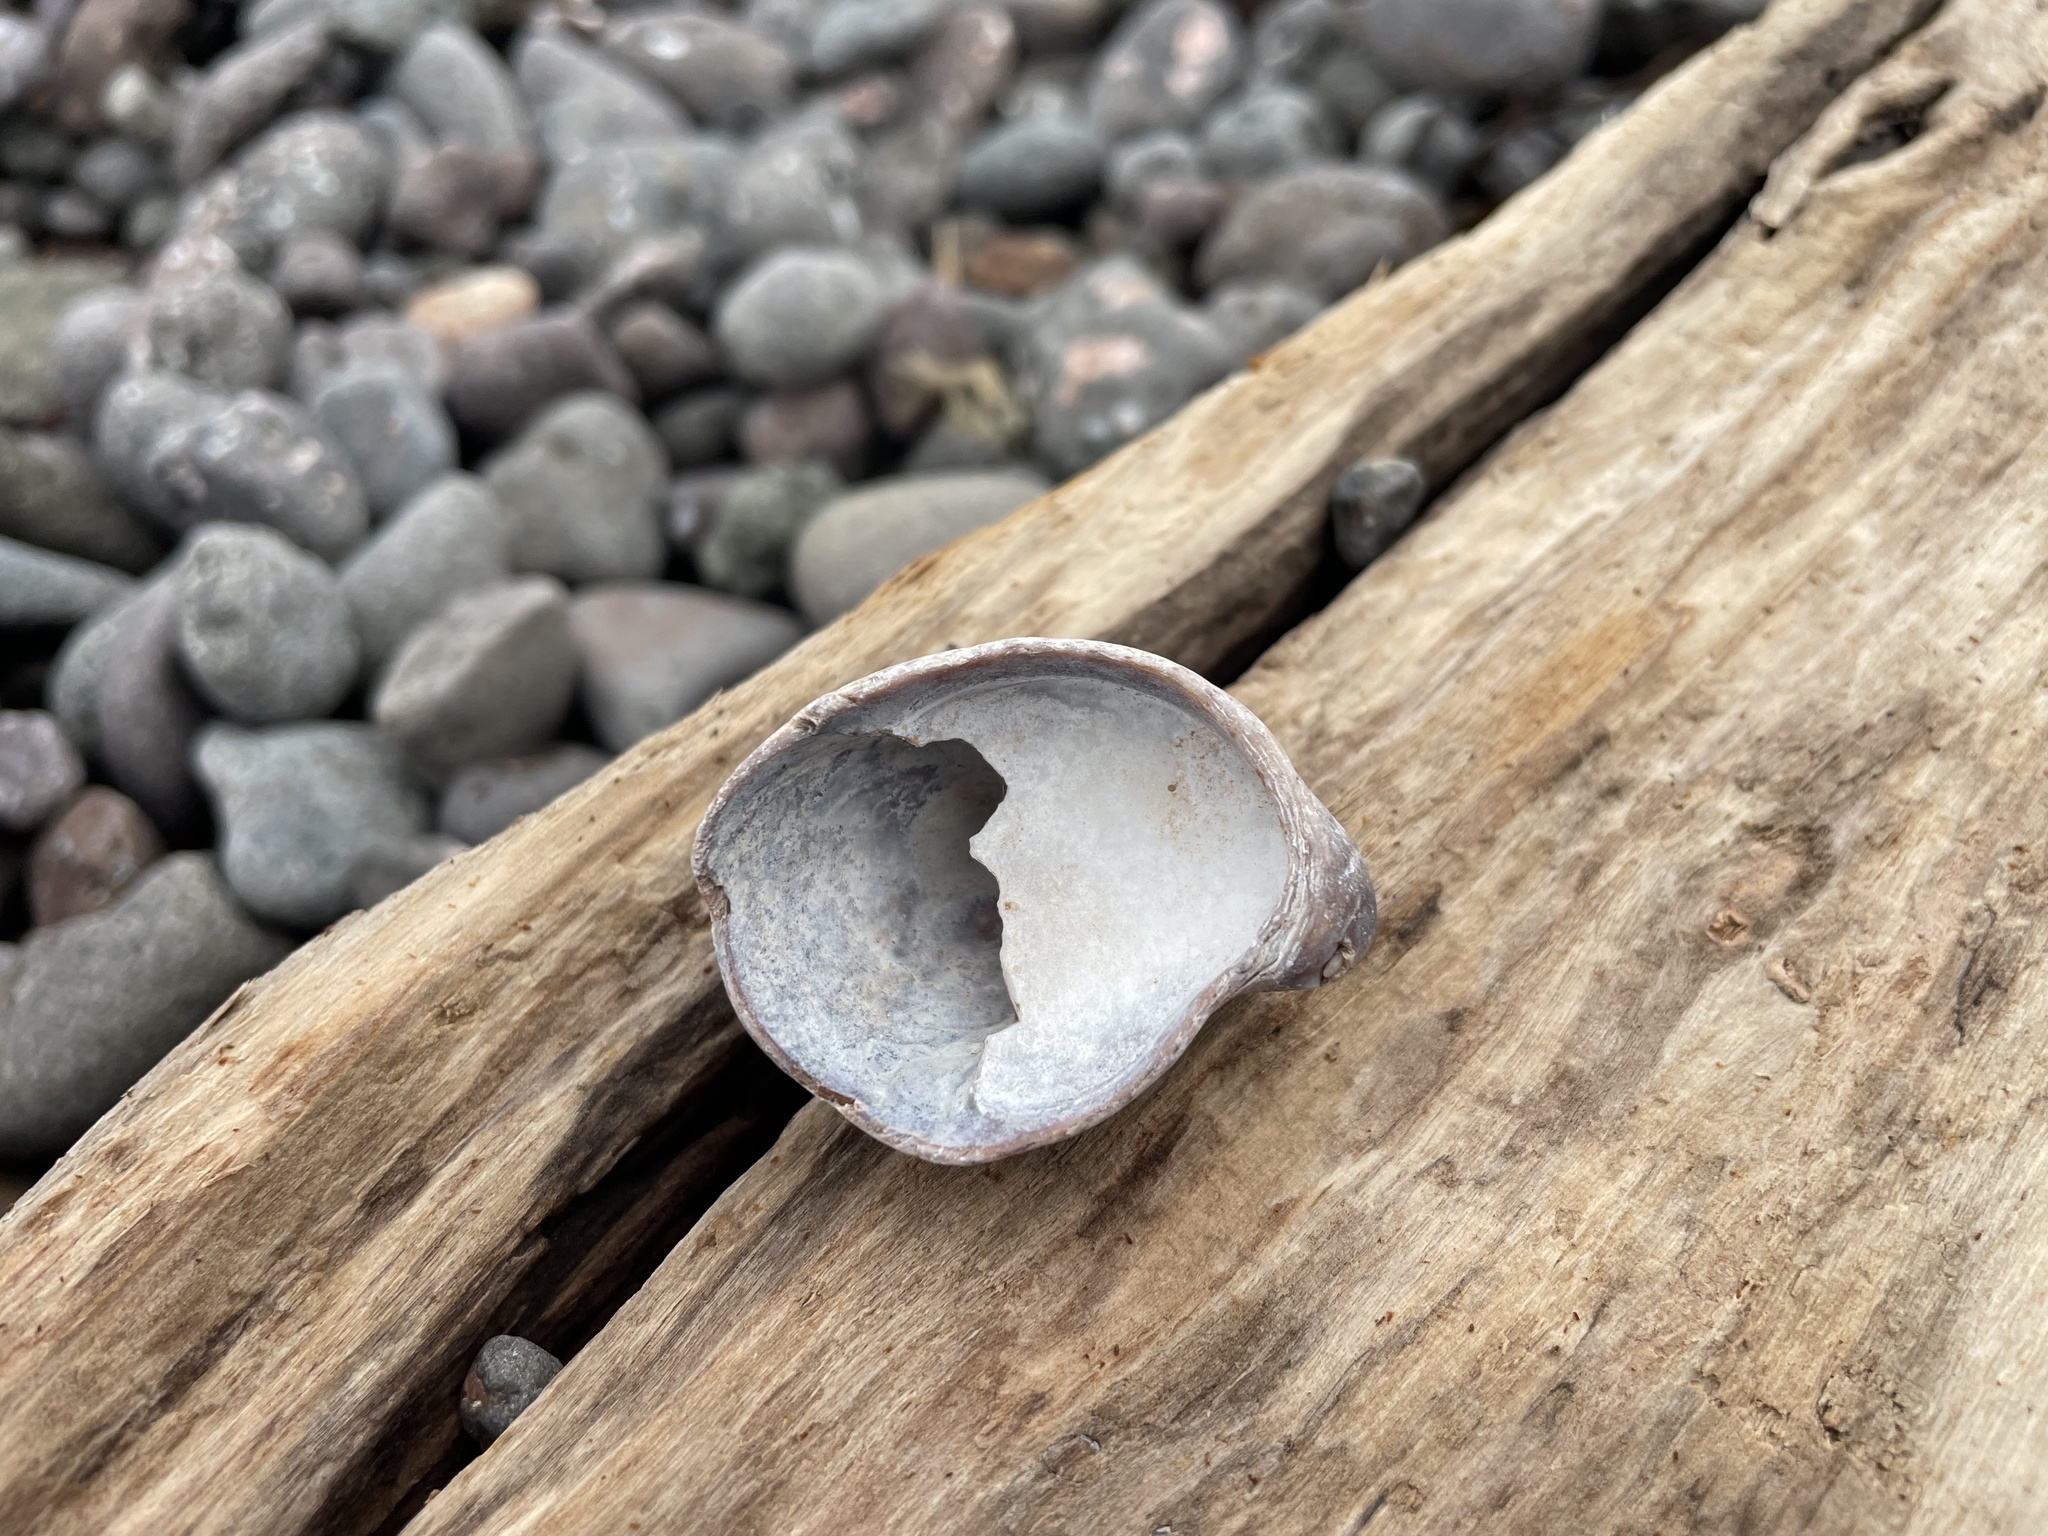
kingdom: Animalia
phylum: Mollusca
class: Gastropoda
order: Littorinimorpha
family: Calyptraeidae
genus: Crepidula
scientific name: Crepidula fornicata
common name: Slipper limpet
